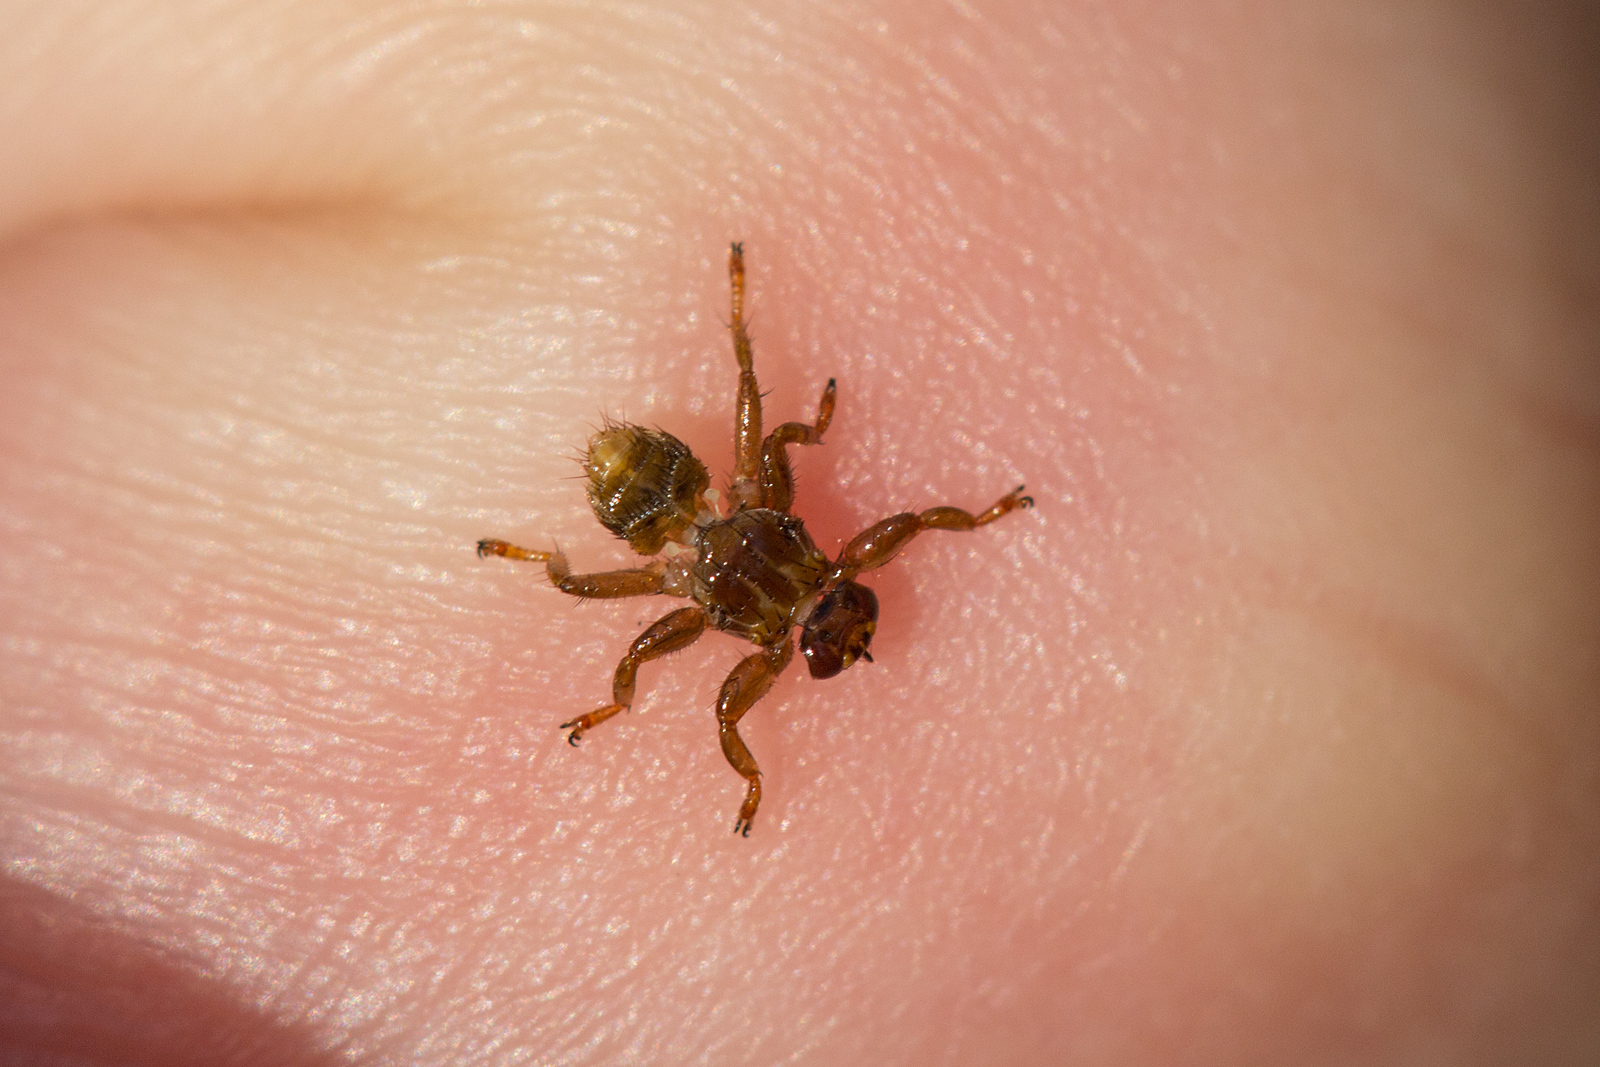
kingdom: Animalia
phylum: Arthropoda
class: Insecta
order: Diptera
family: Hippoboscidae
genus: Lipoptena
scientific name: Lipoptena fortisetosa
